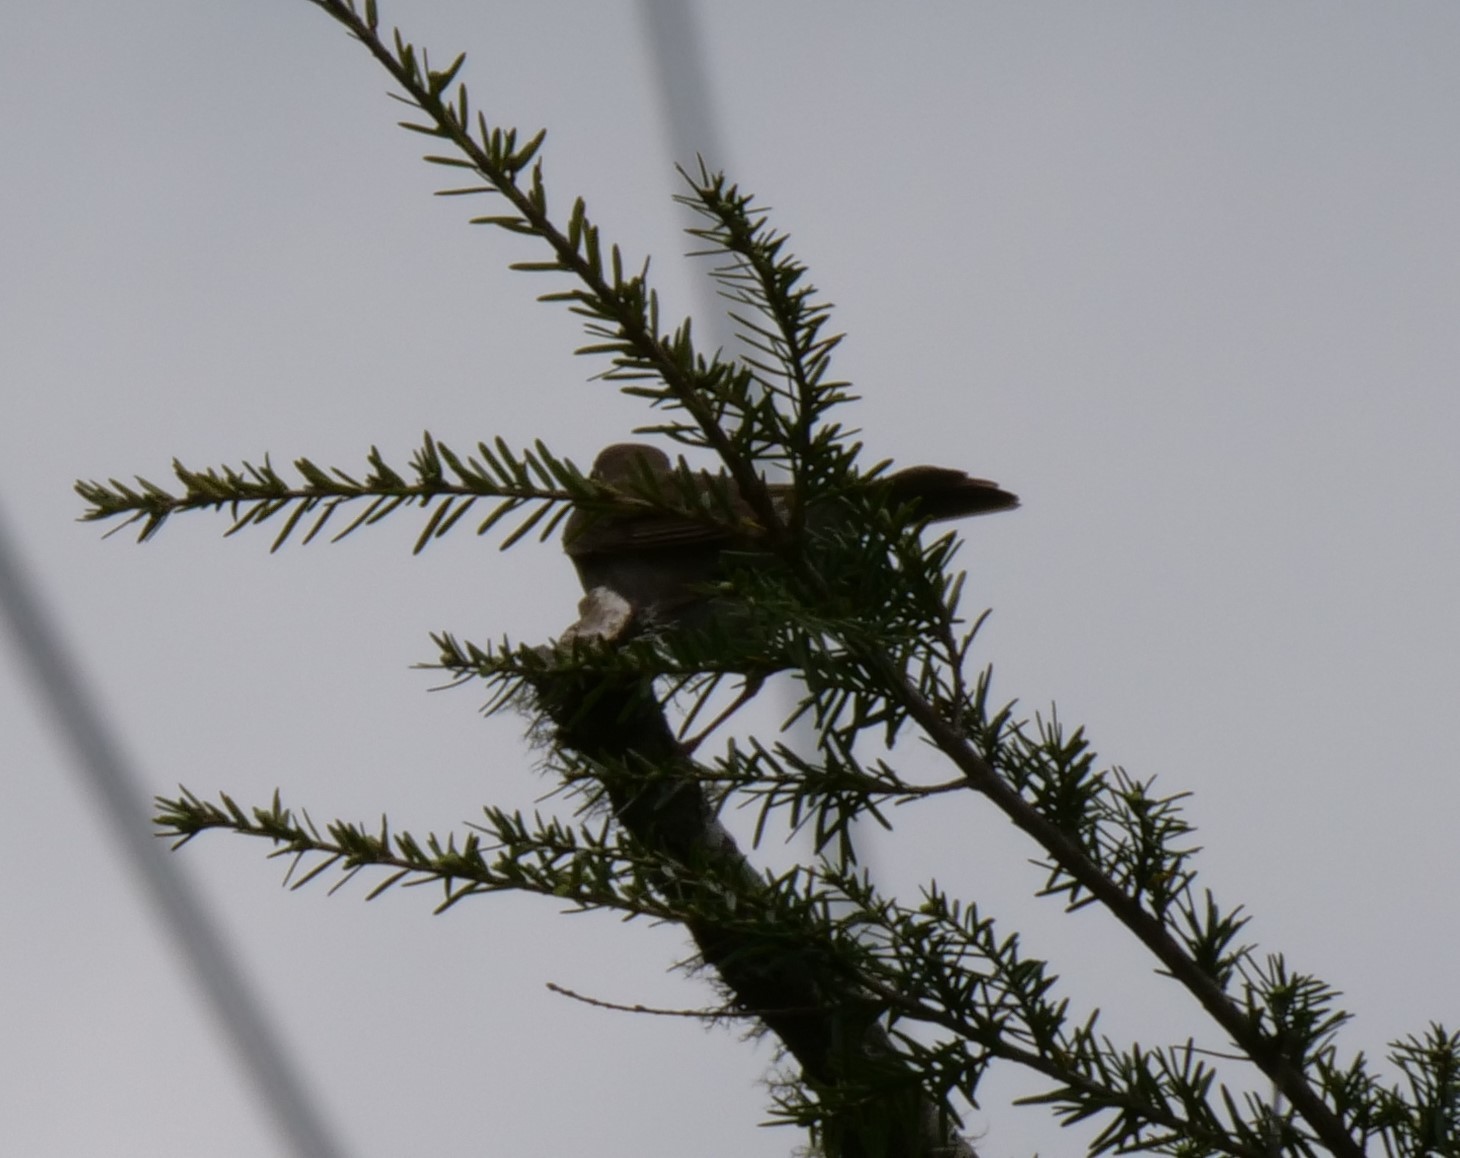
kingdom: Animalia
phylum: Chordata
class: Aves
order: Passeriformes
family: Turdidae
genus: Catharus
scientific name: Catharus ustulatus
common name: Swainson's thrush
